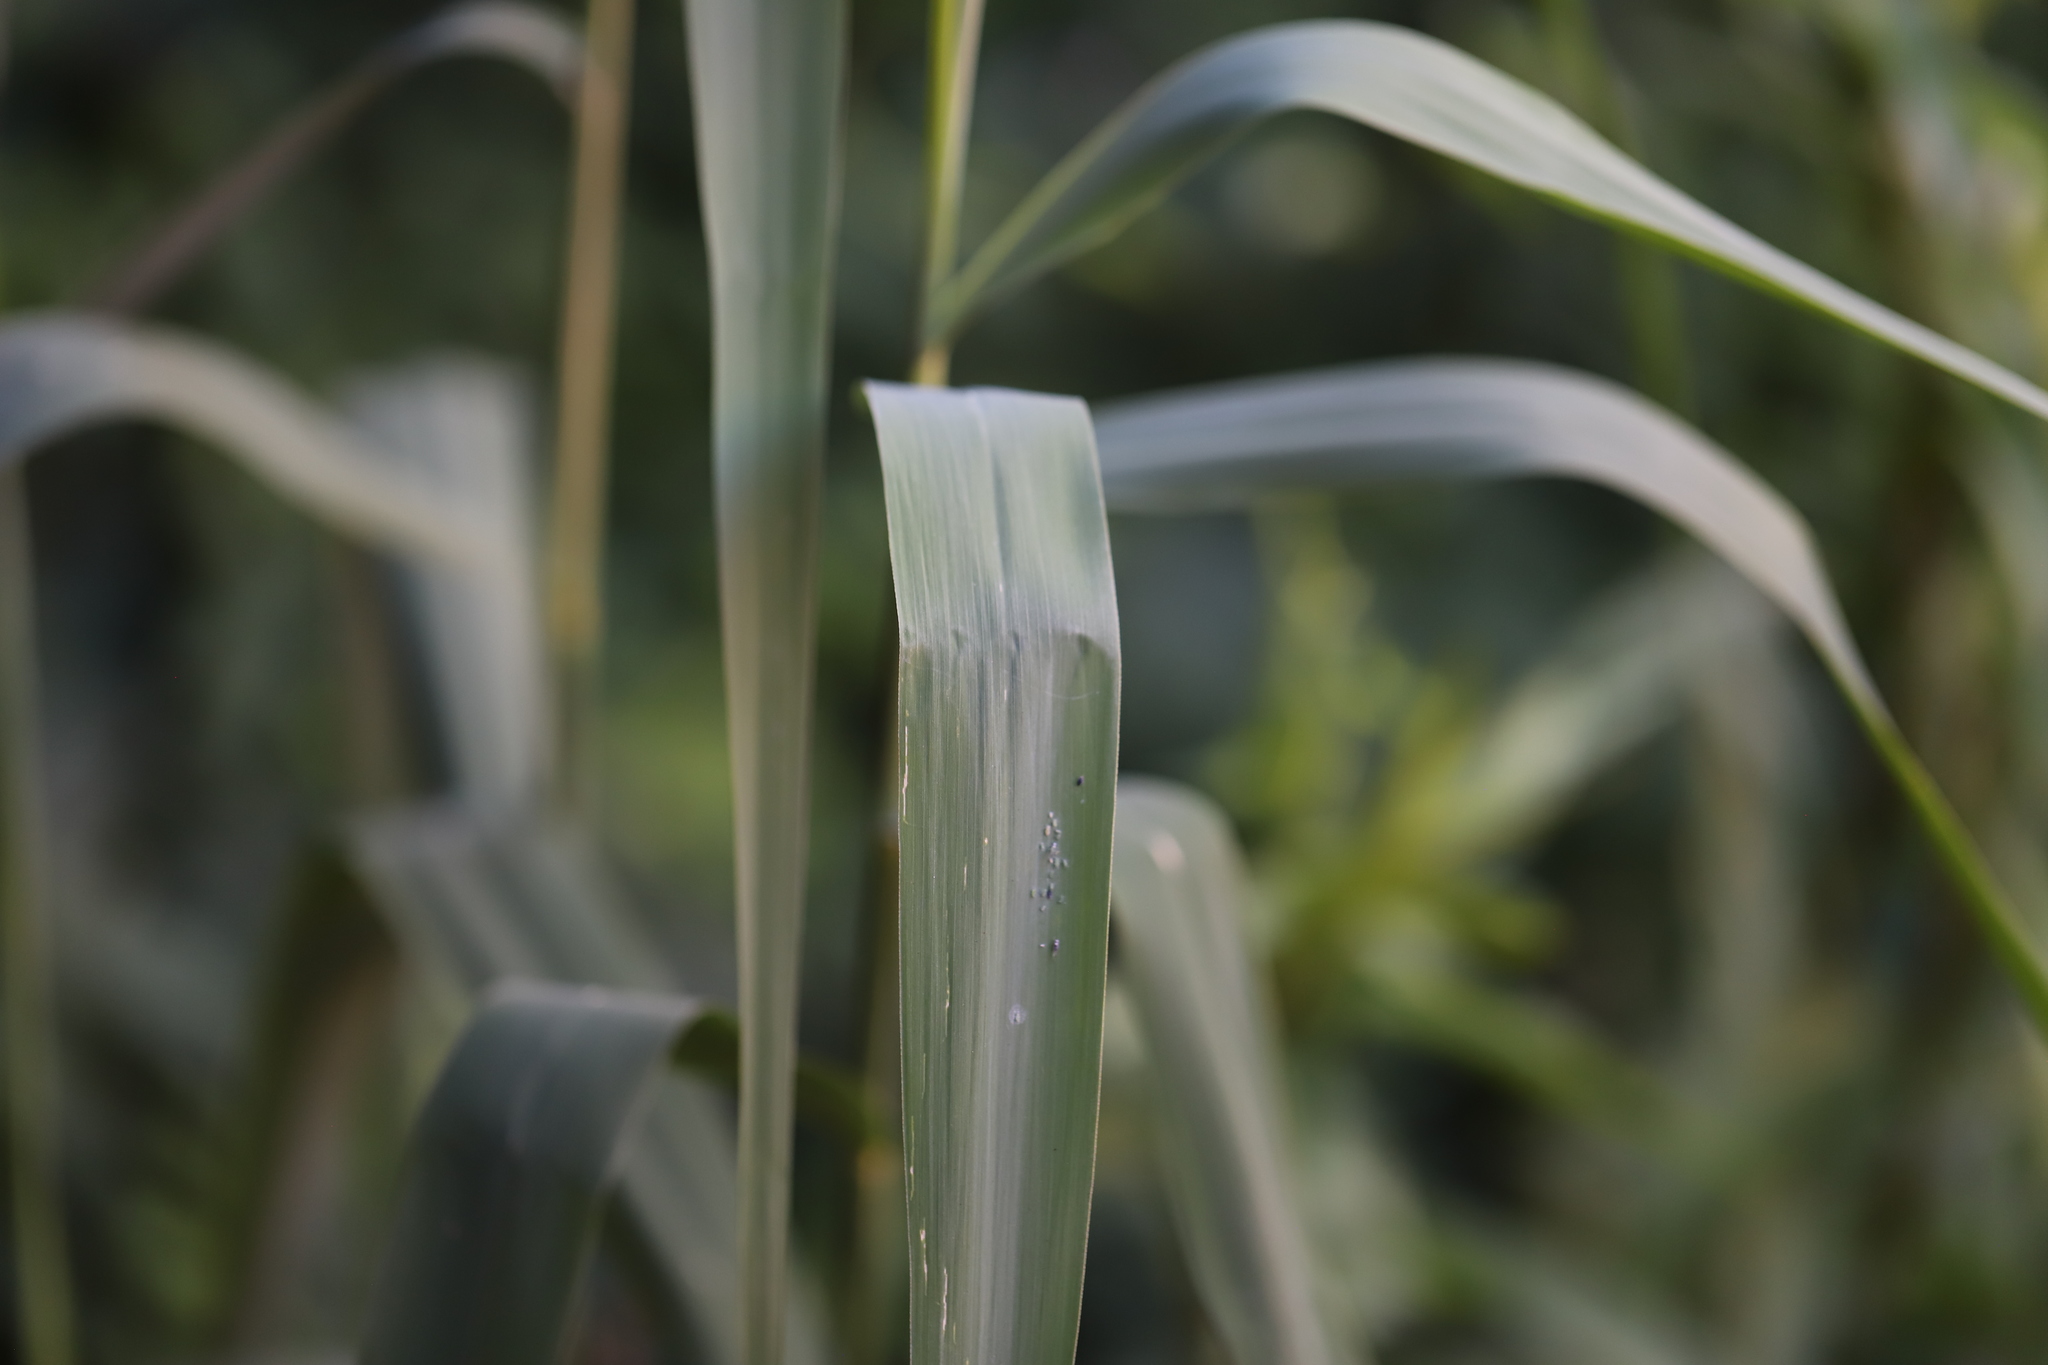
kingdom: Animalia
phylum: Arthropoda
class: Insecta
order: Hemiptera
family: Aphididae
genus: Hyalopterus
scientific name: Hyalopterus pruni
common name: Mealy plum aphid
